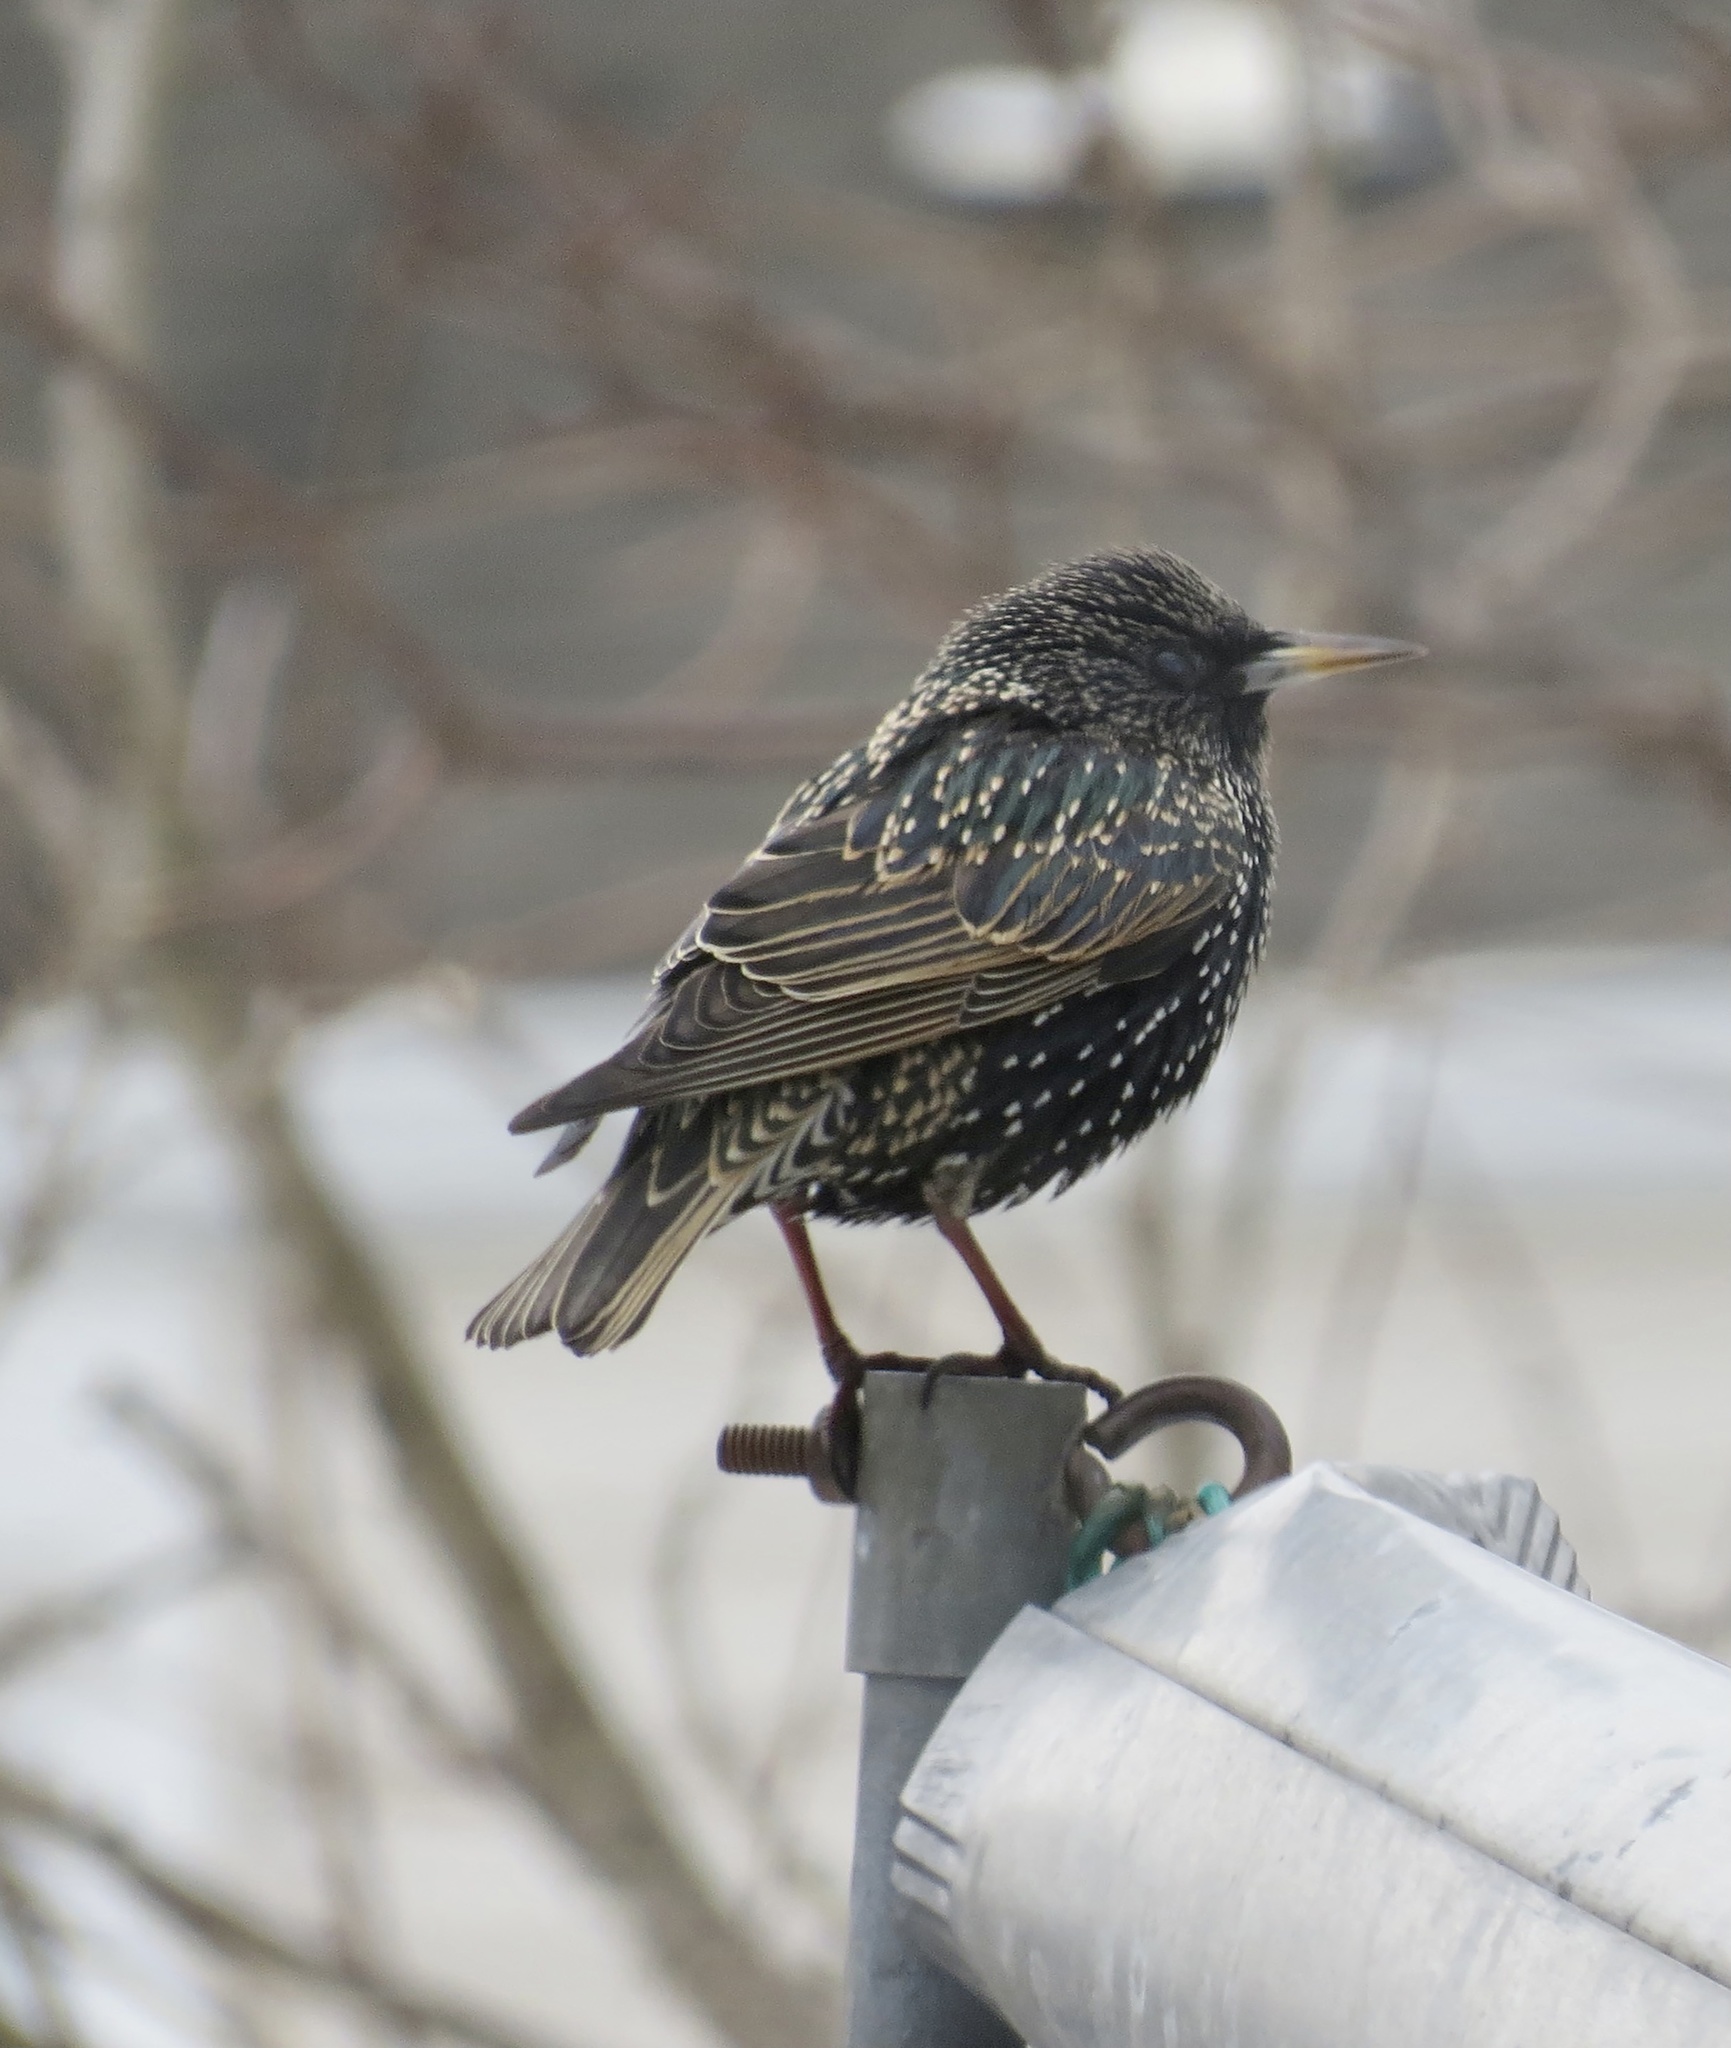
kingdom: Animalia
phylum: Chordata
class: Aves
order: Passeriformes
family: Sturnidae
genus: Sturnus
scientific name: Sturnus vulgaris
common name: Common starling
